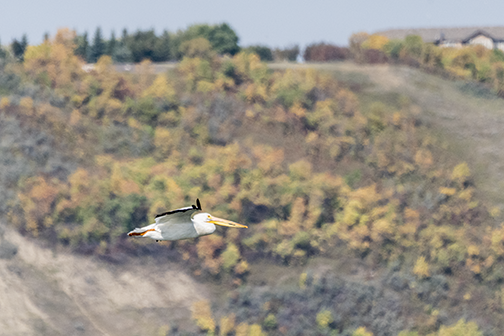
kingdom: Animalia
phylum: Chordata
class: Aves
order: Pelecaniformes
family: Pelecanidae
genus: Pelecanus
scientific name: Pelecanus erythrorhynchos
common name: American white pelican
